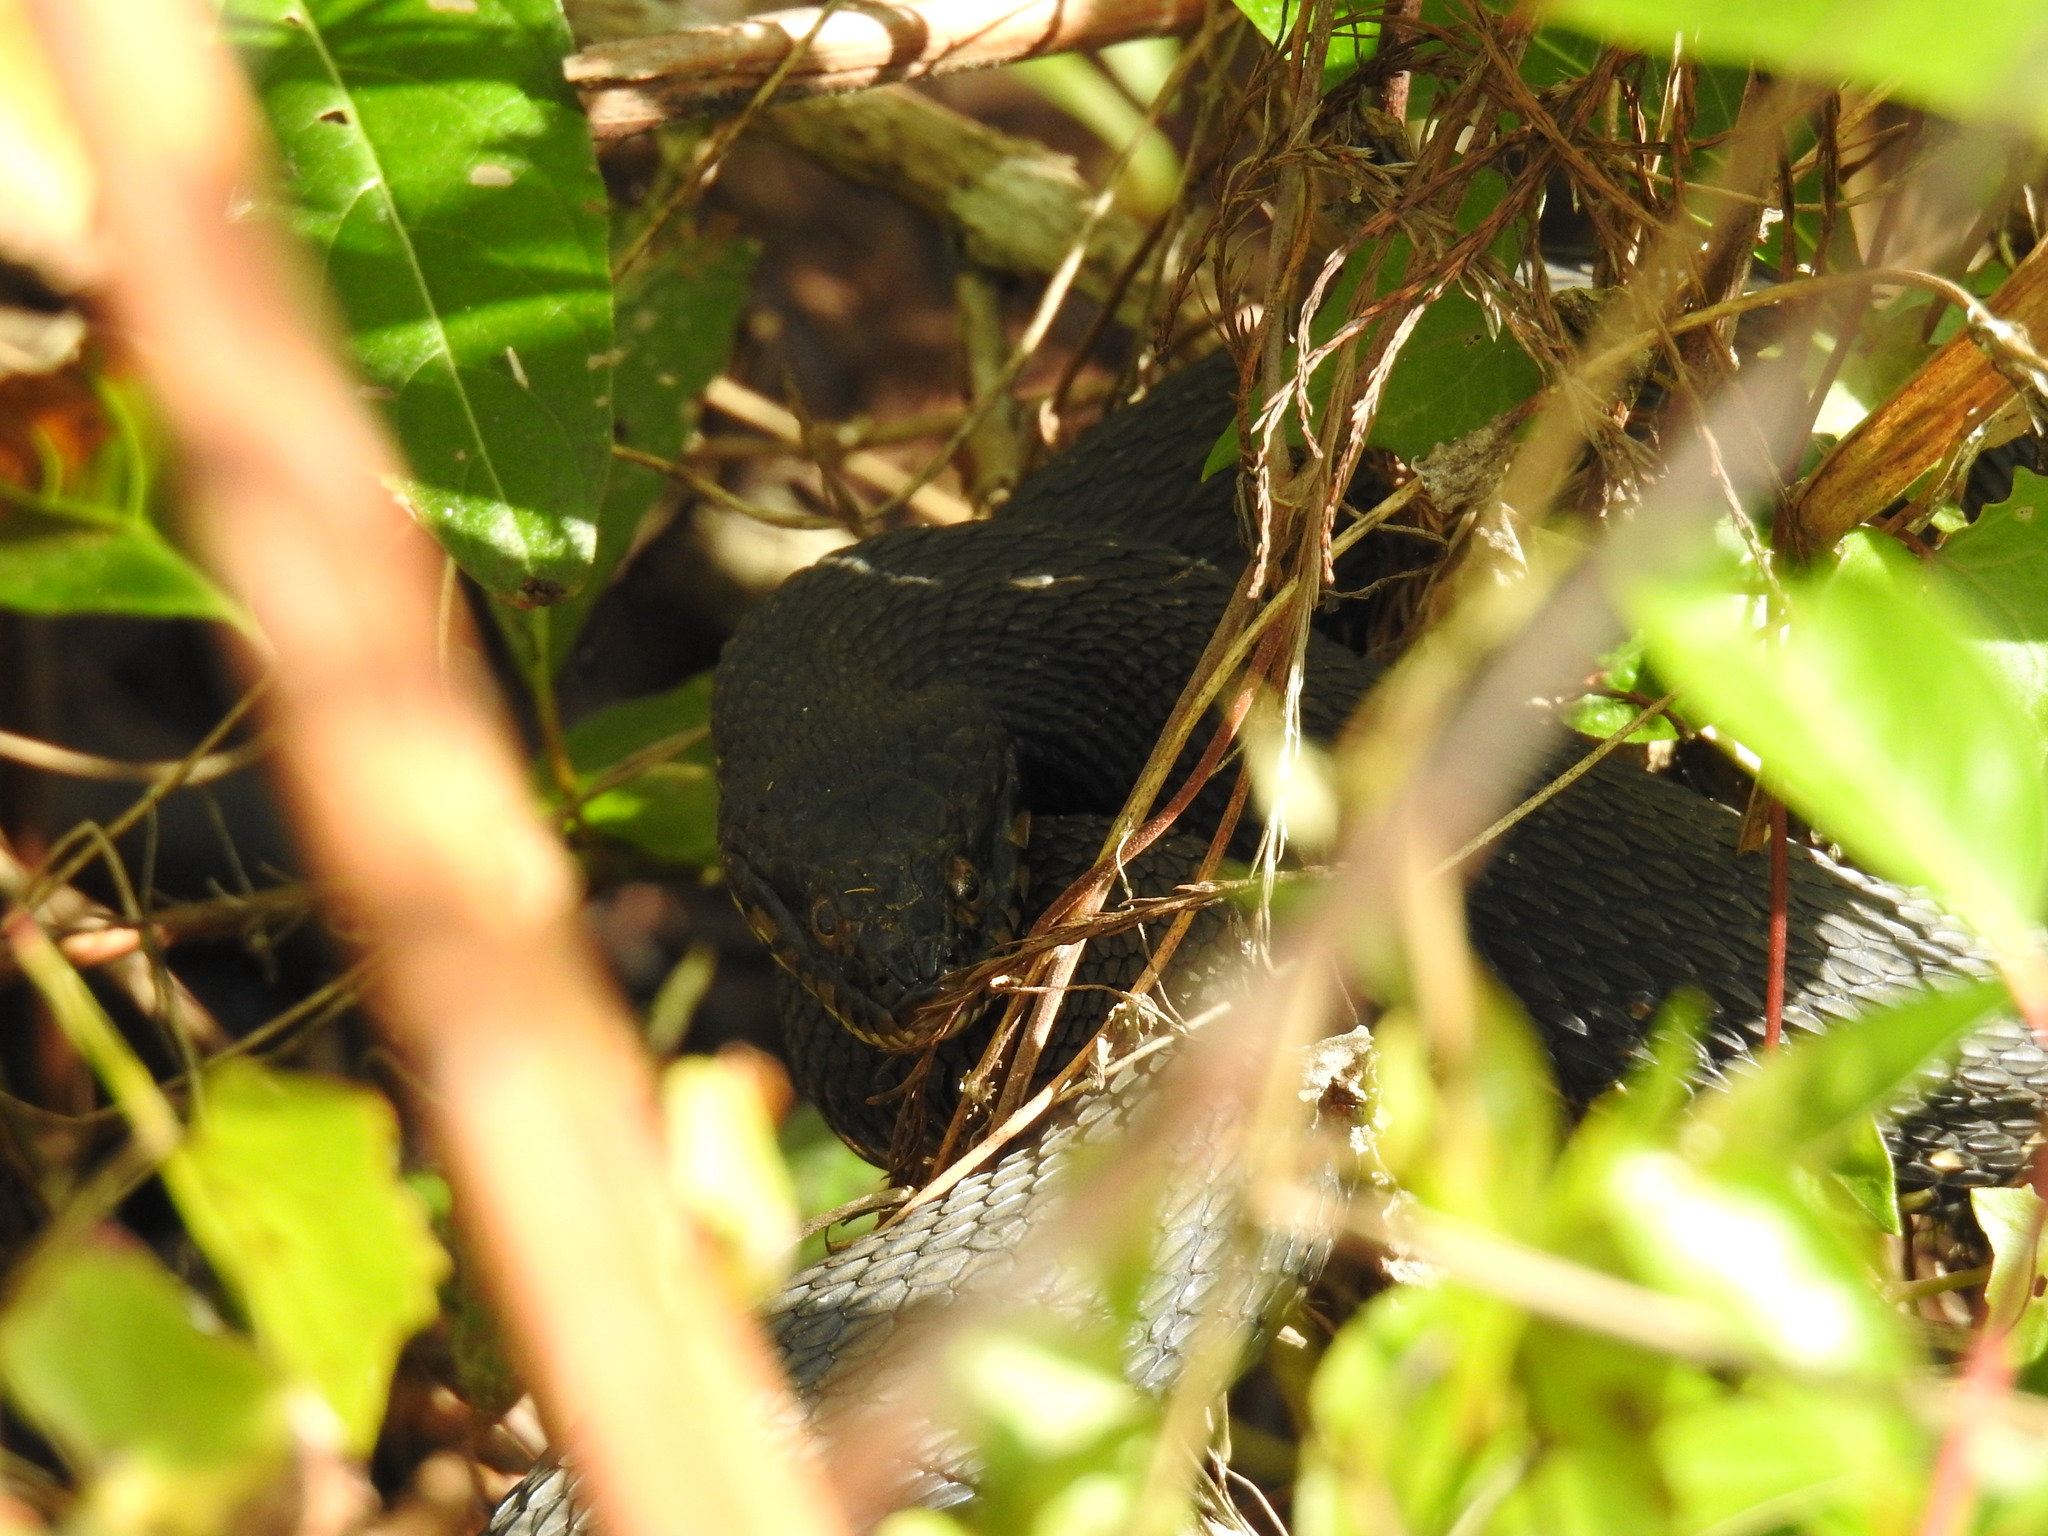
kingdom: Animalia
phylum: Chordata
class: Squamata
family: Colubridae
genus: Nerodia
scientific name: Nerodia fasciata
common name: Southern water snake
